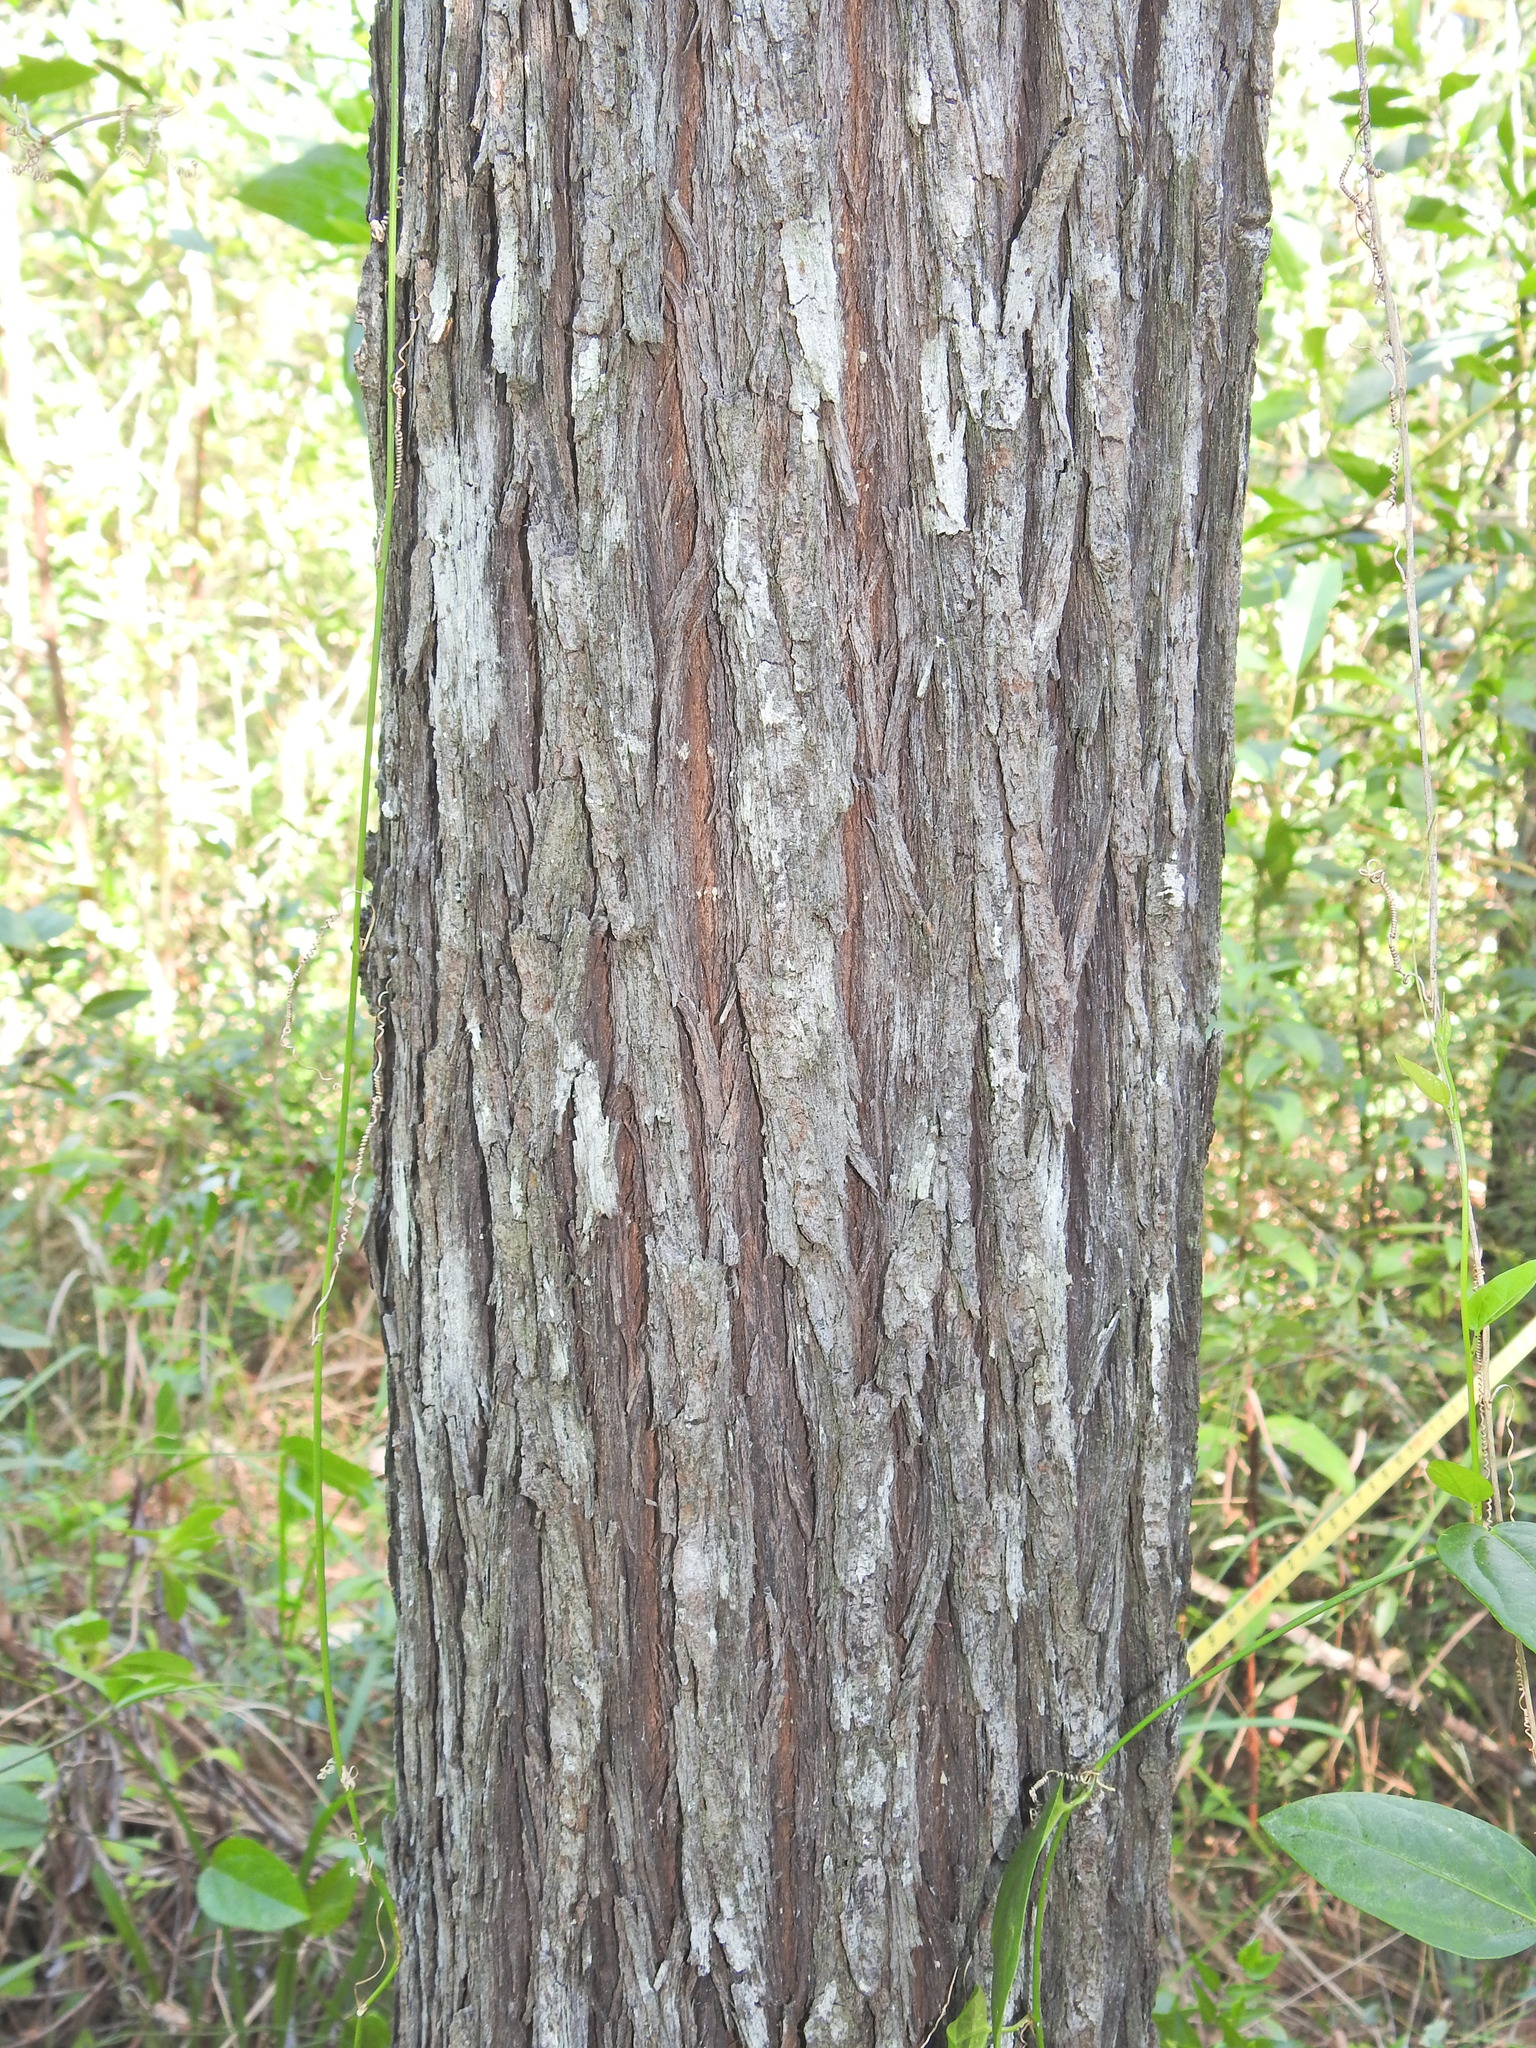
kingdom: Plantae
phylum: Tracheophyta
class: Pinopsida
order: Pinales
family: Cupressaceae
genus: Callitris
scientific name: Callitris columellaris
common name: White cypress-pine
